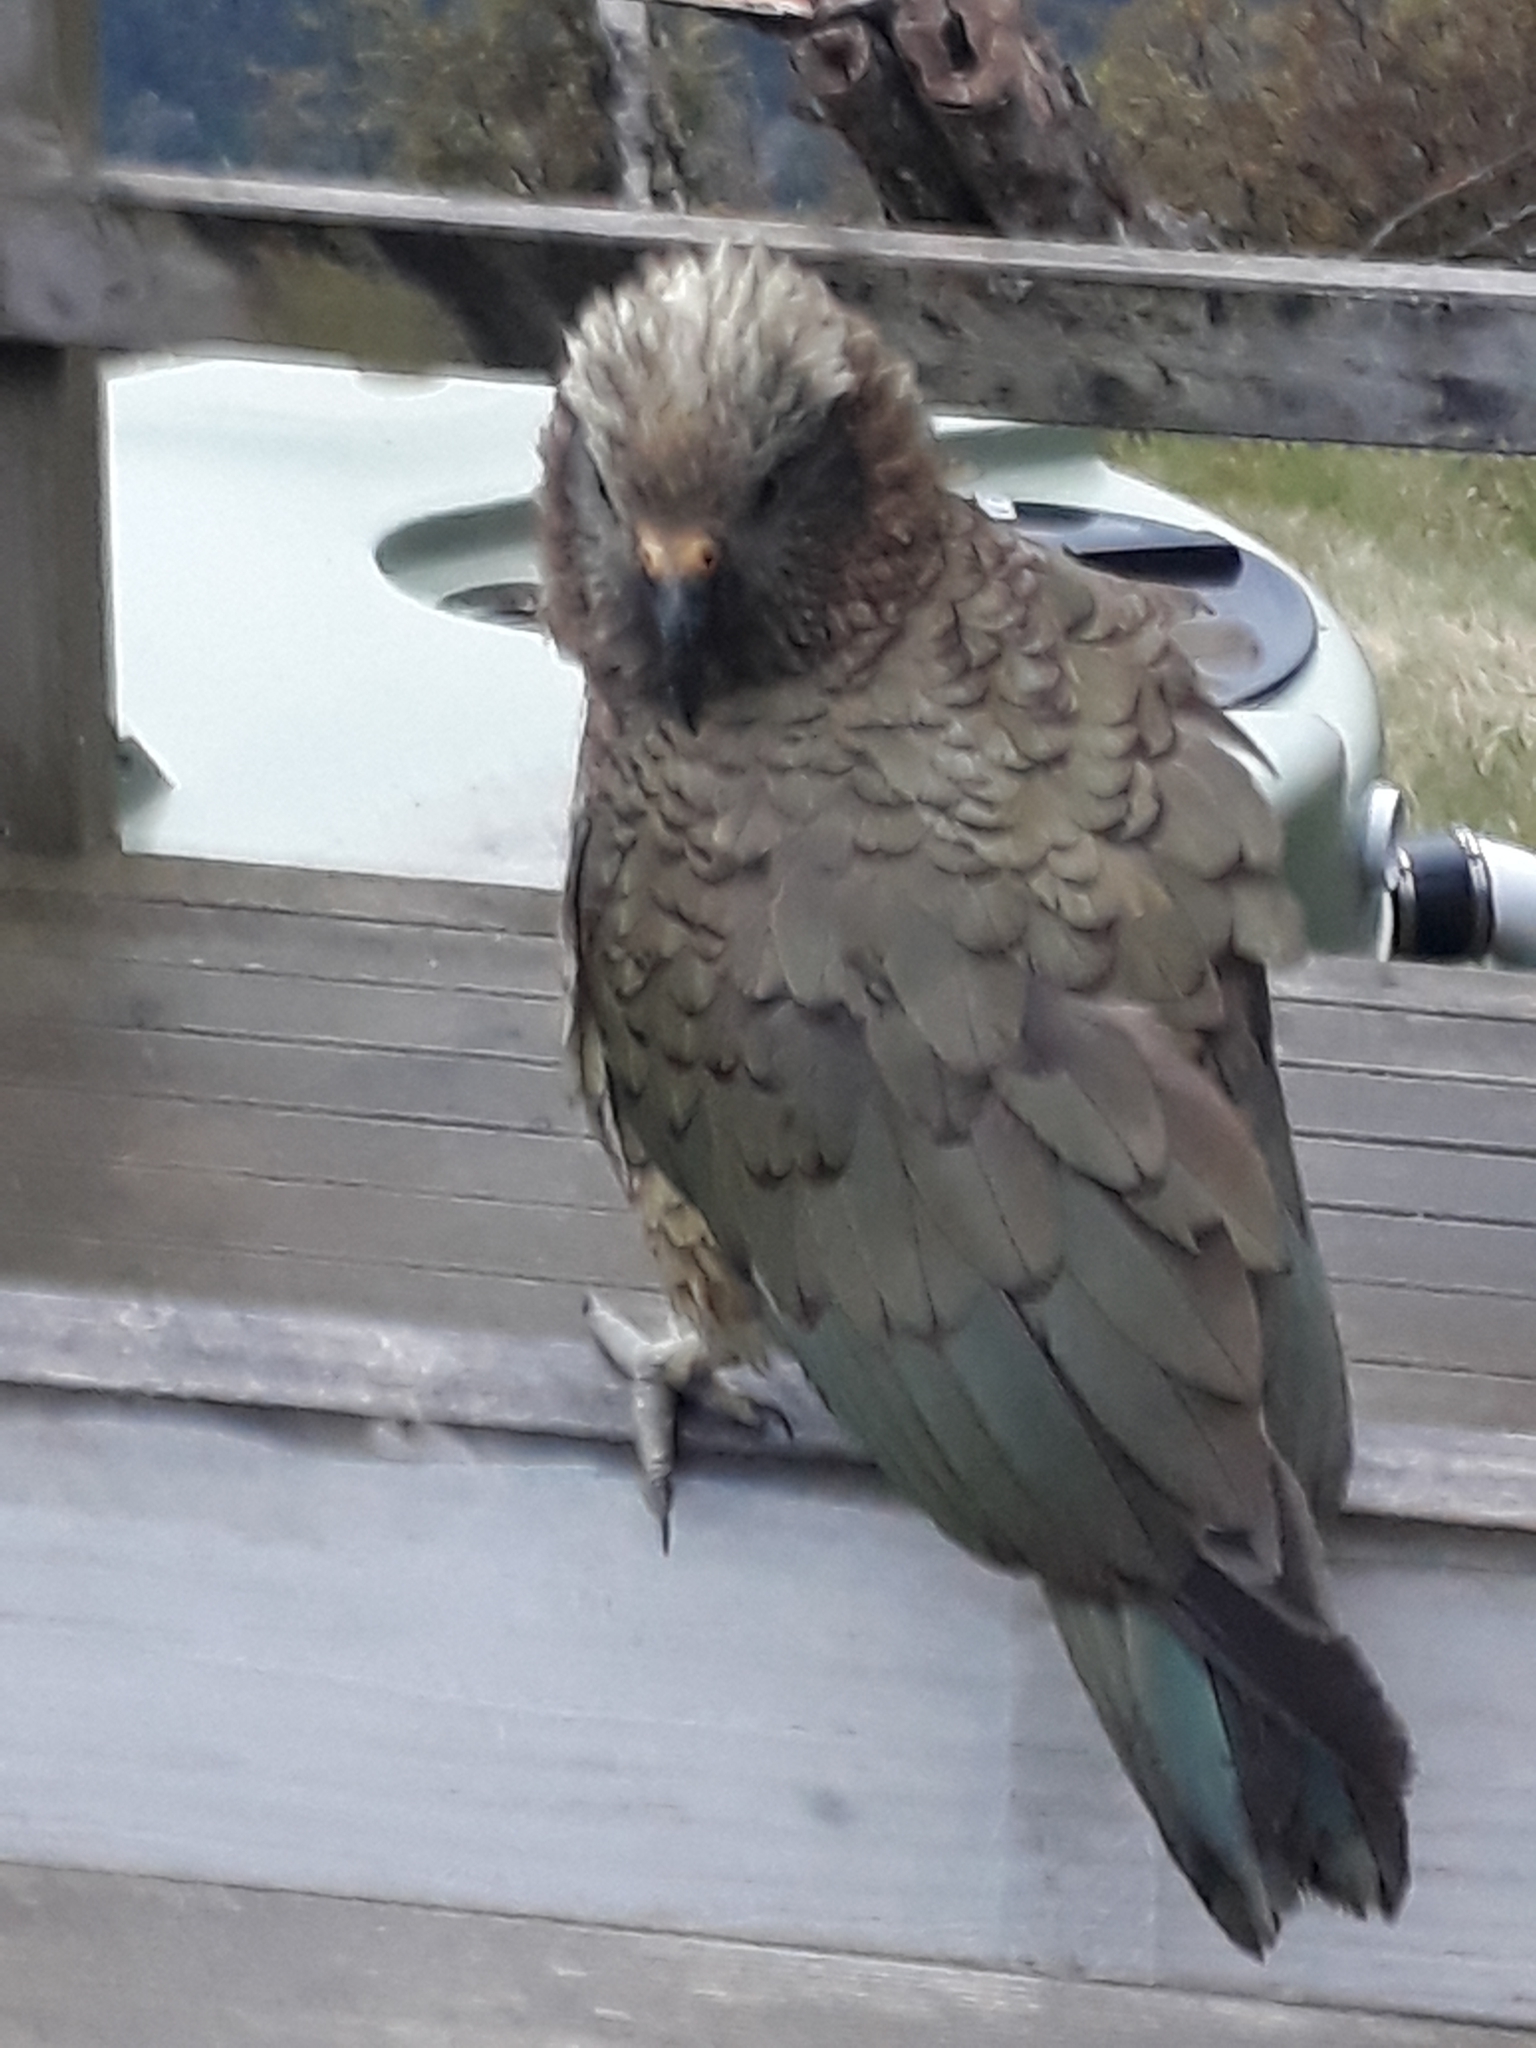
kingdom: Animalia
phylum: Chordata
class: Aves
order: Psittaciformes
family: Psittacidae
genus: Nestor
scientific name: Nestor notabilis
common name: Kea
